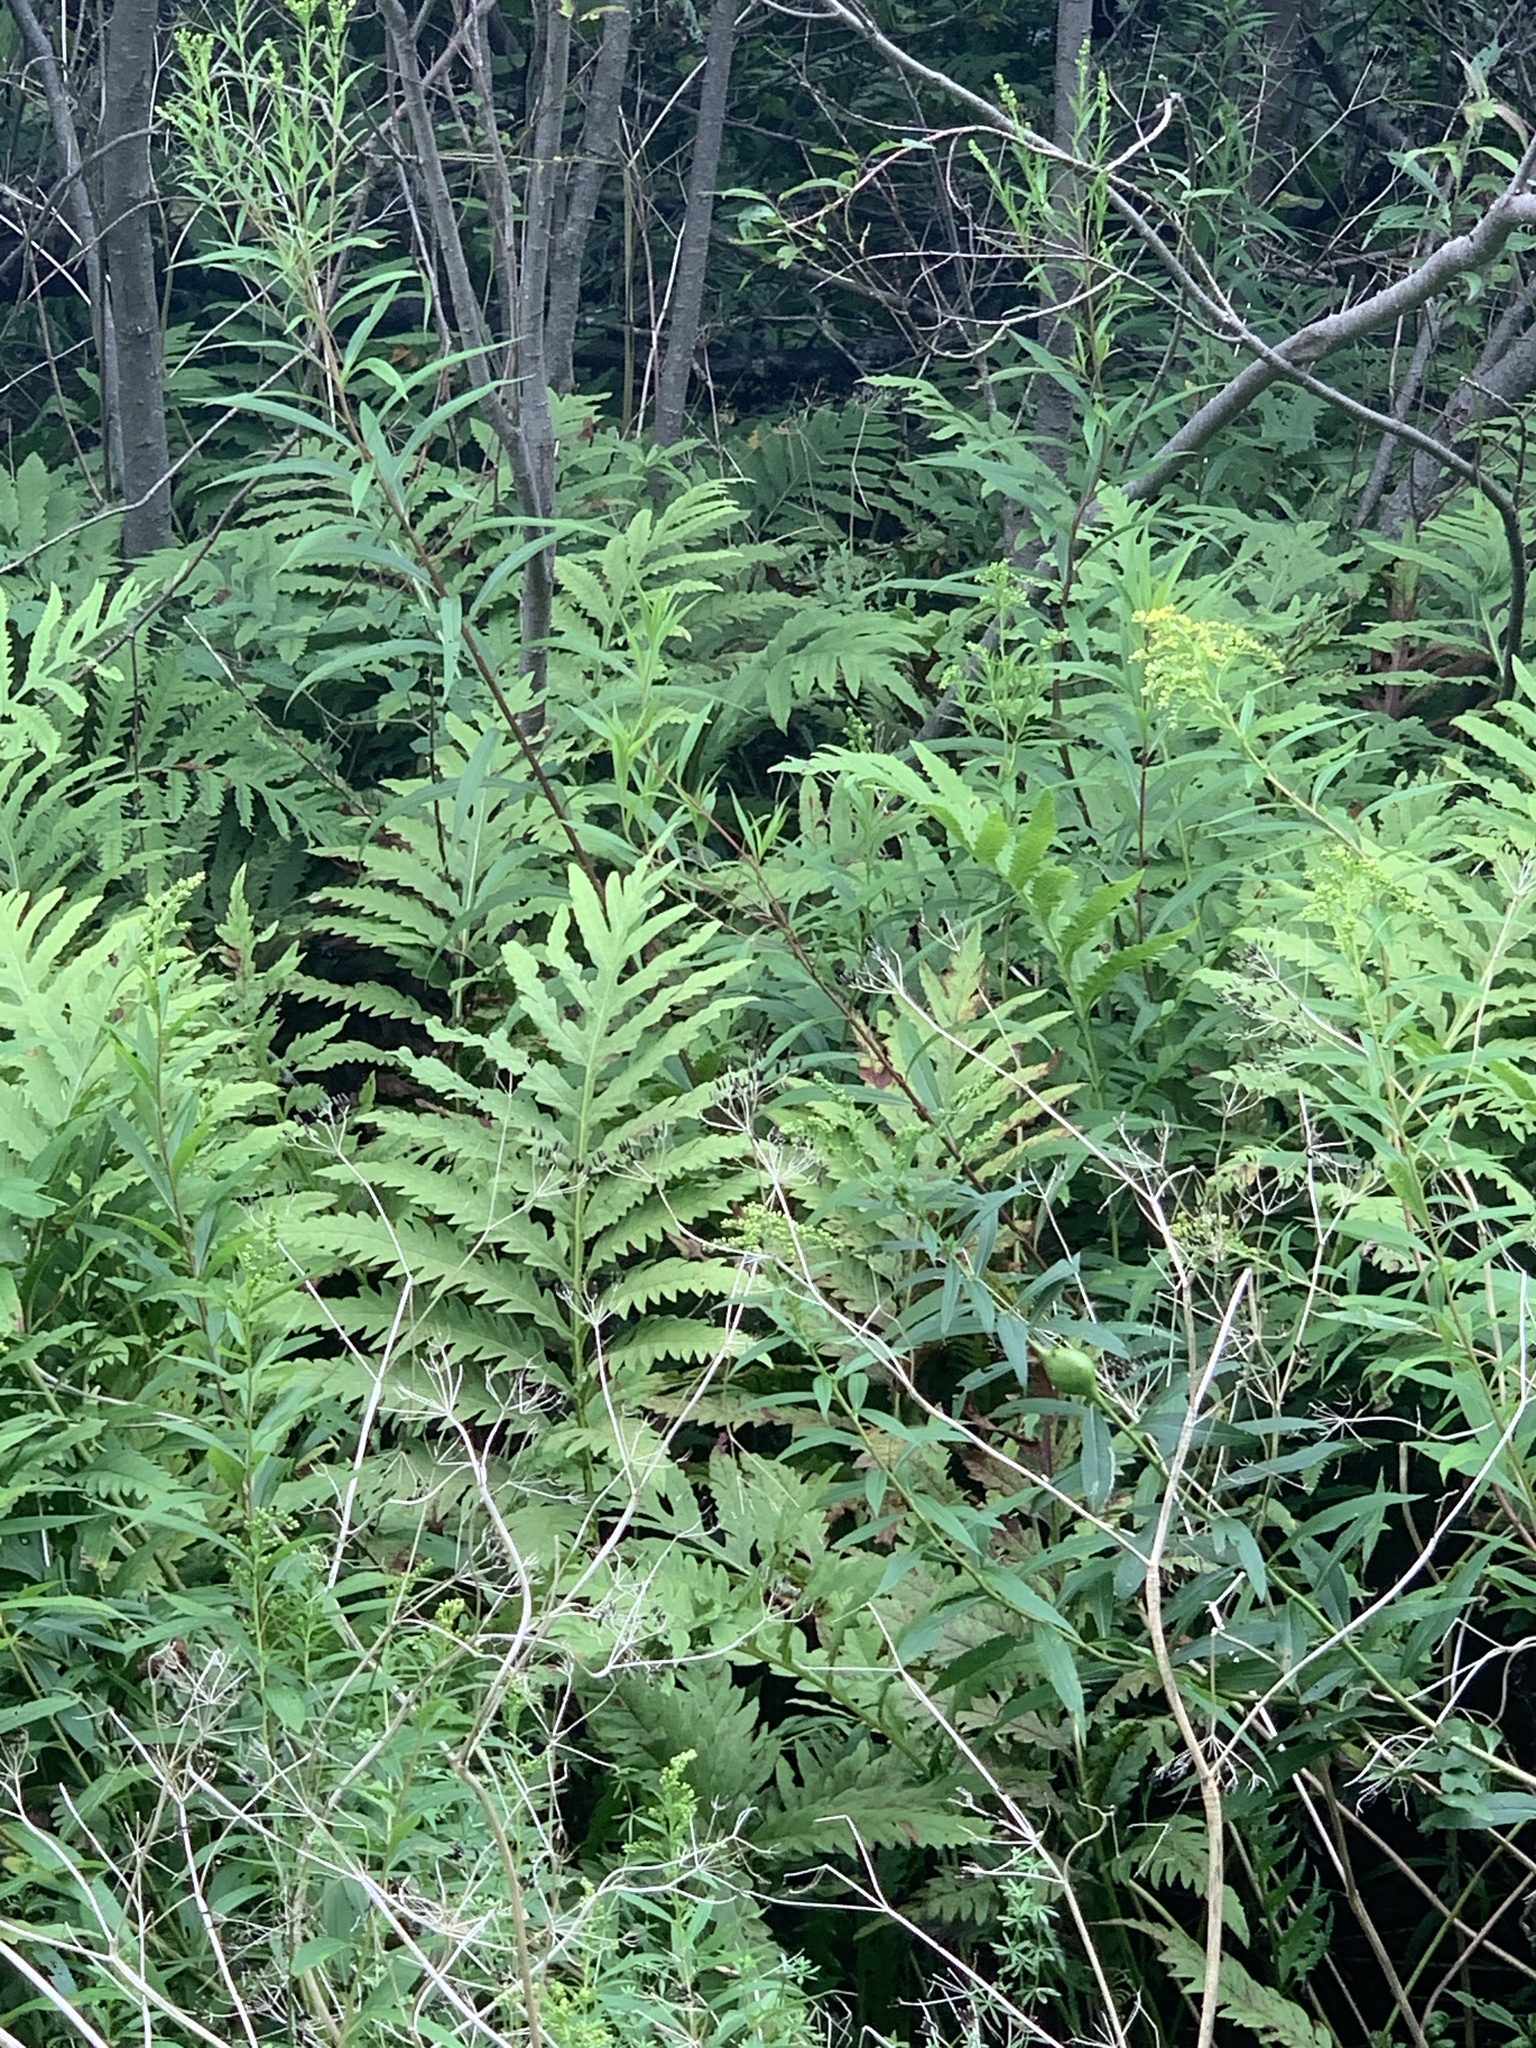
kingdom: Plantae
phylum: Tracheophyta
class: Polypodiopsida
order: Polypodiales
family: Onocleaceae
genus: Onoclea
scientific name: Onoclea sensibilis
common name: Sensitive fern
